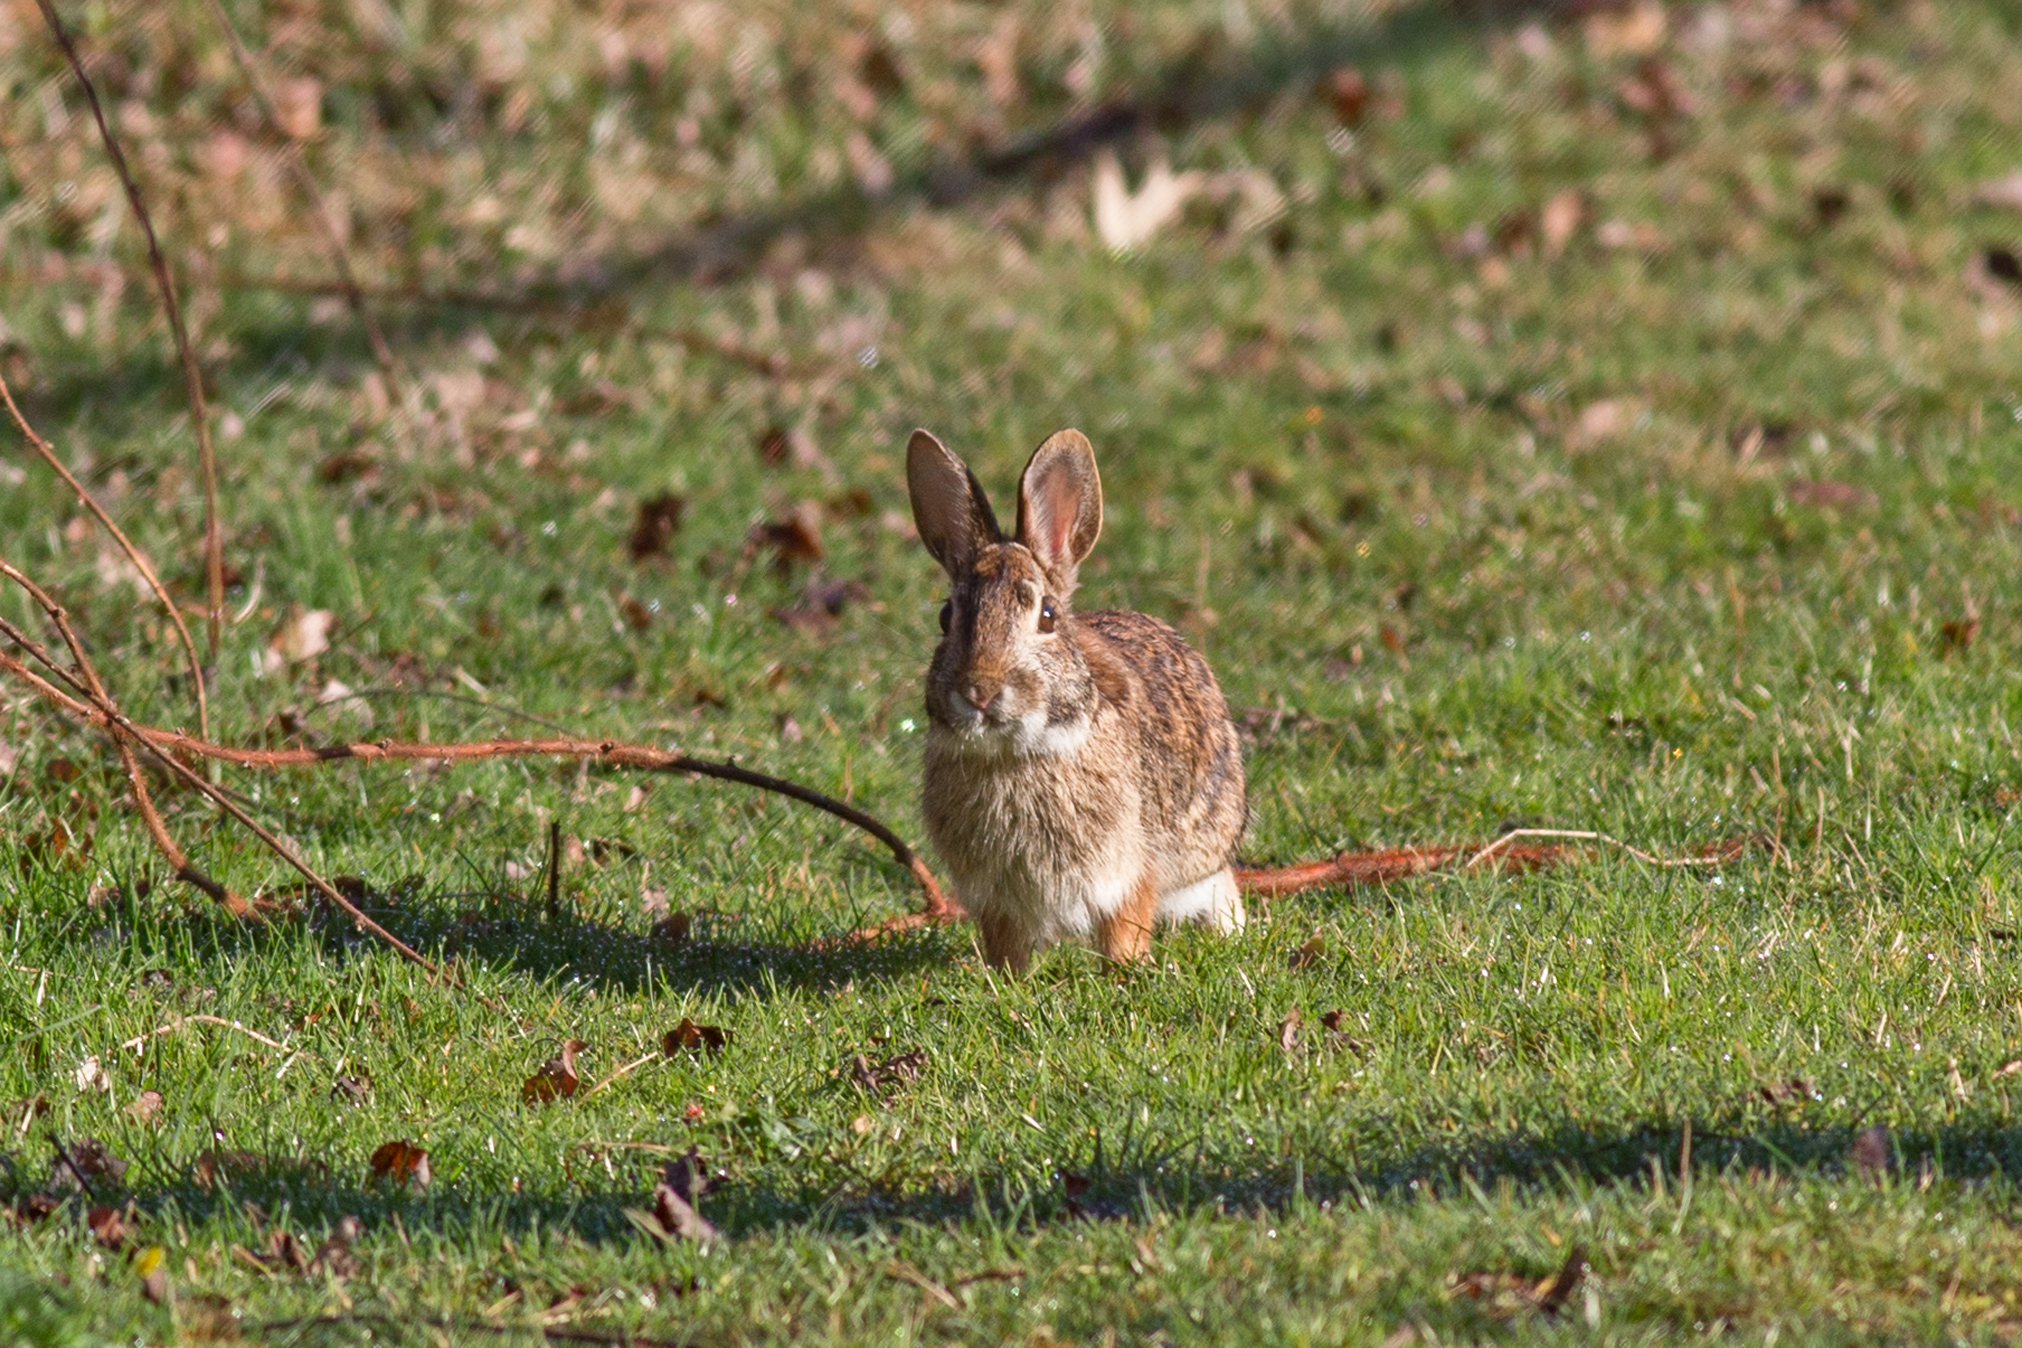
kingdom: Animalia
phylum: Chordata
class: Mammalia
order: Lagomorpha
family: Leporidae
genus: Sylvilagus
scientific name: Sylvilagus floridanus
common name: Eastern cottontail
